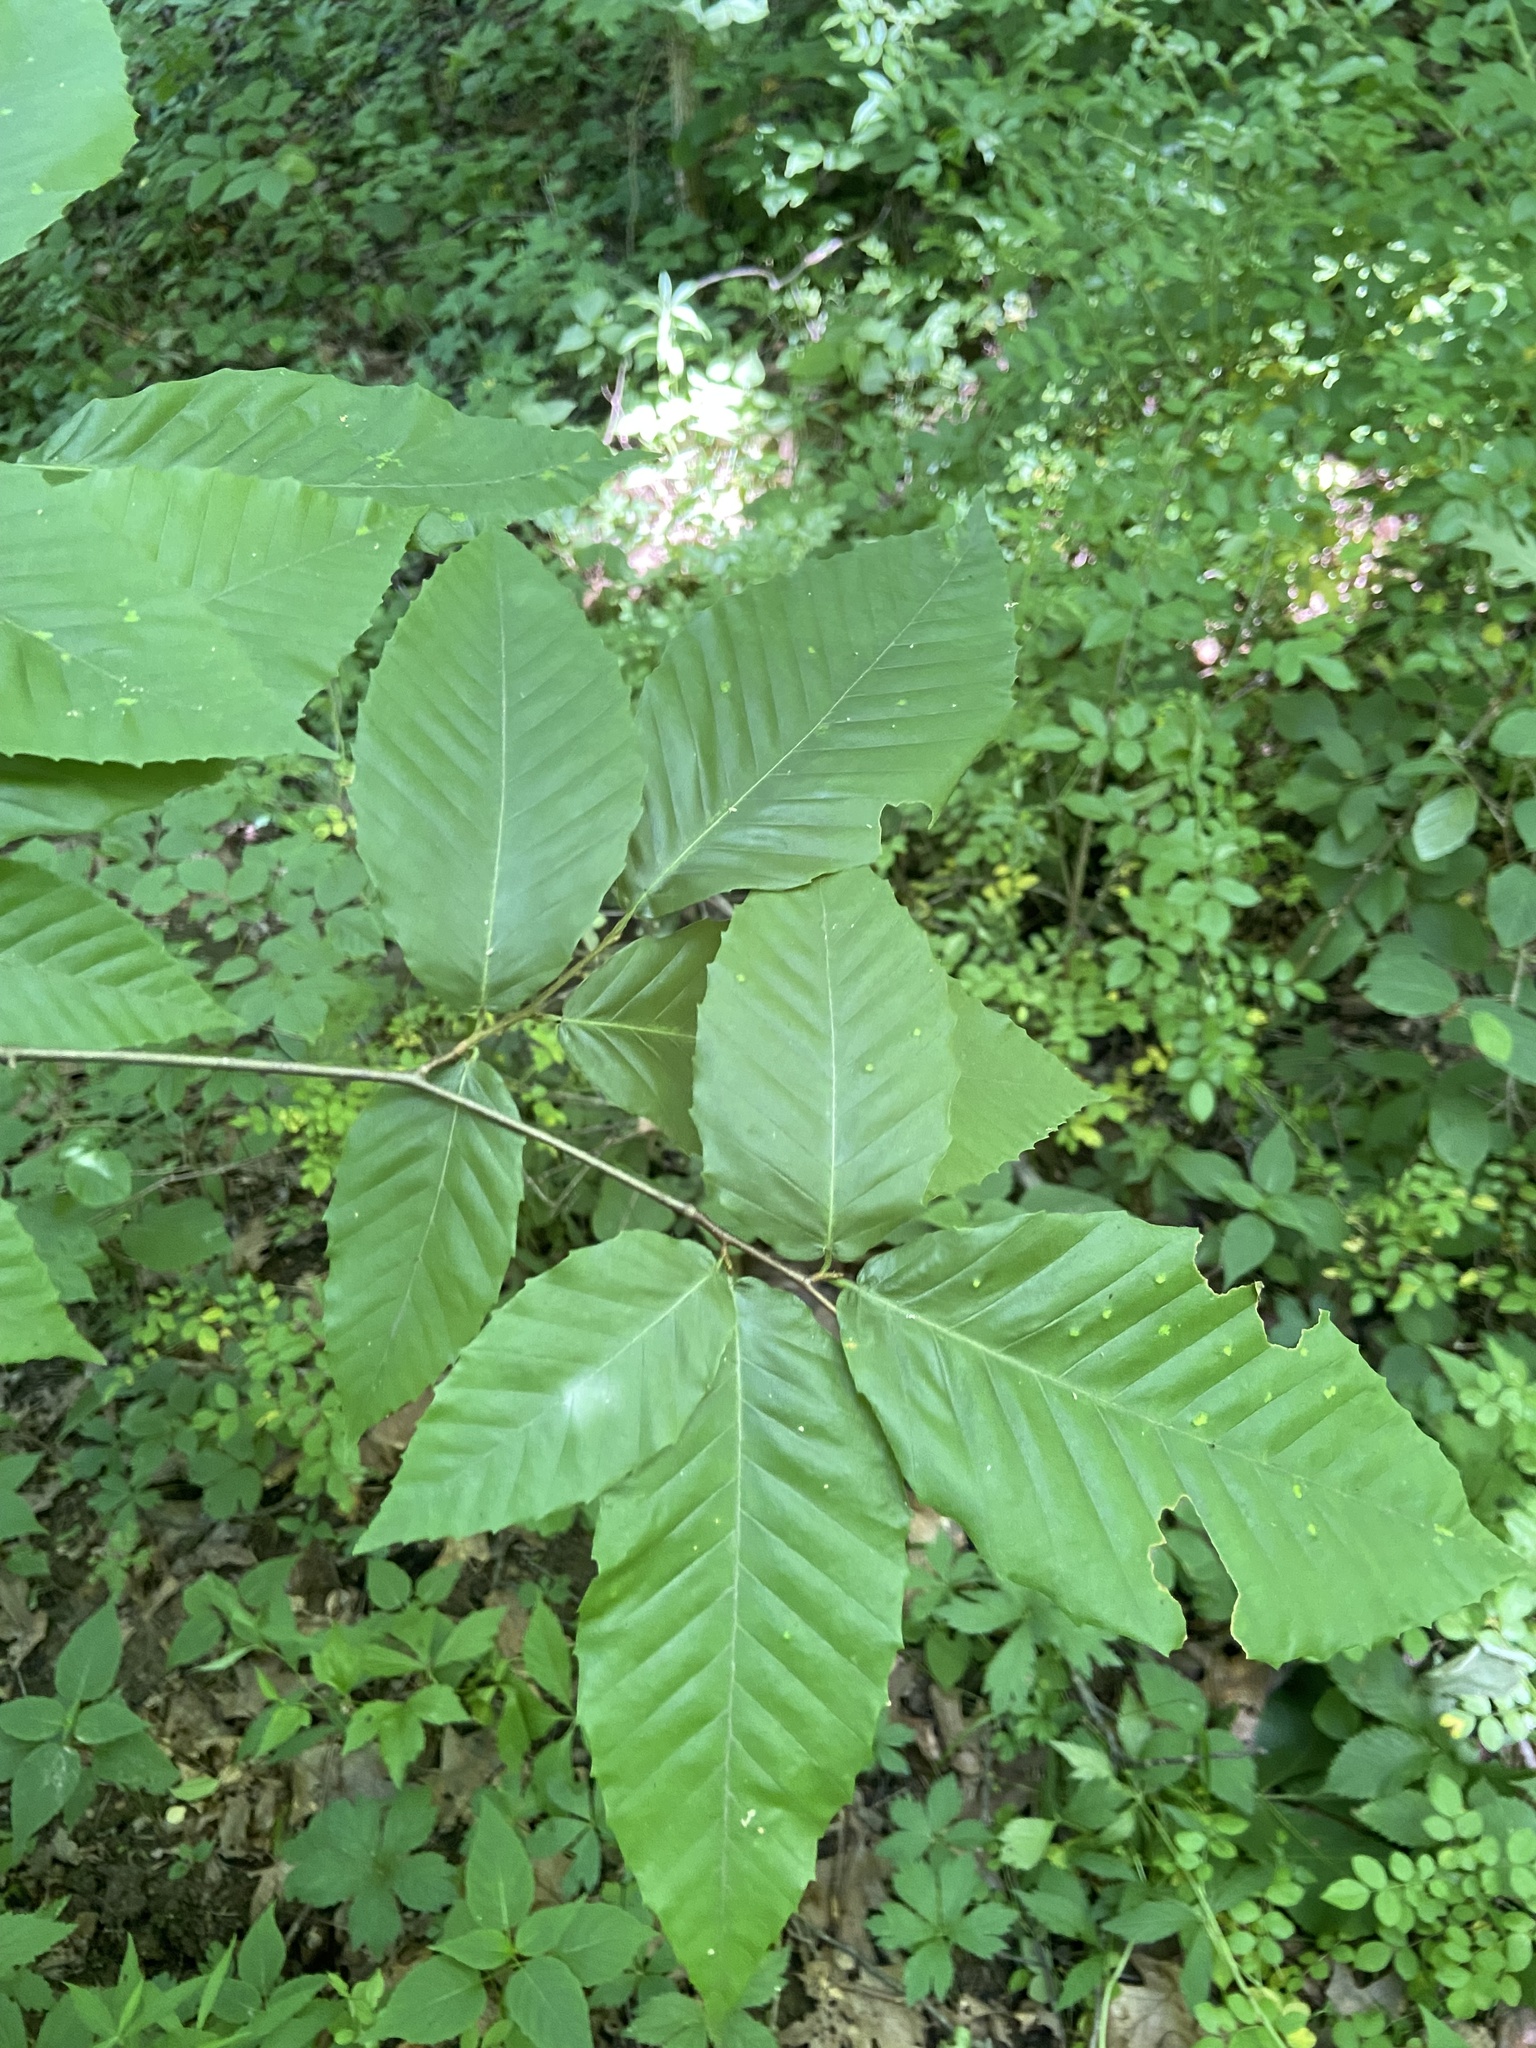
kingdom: Plantae
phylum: Tracheophyta
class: Magnoliopsida
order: Fagales
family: Fagaceae
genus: Fagus
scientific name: Fagus grandifolia
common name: American beech
